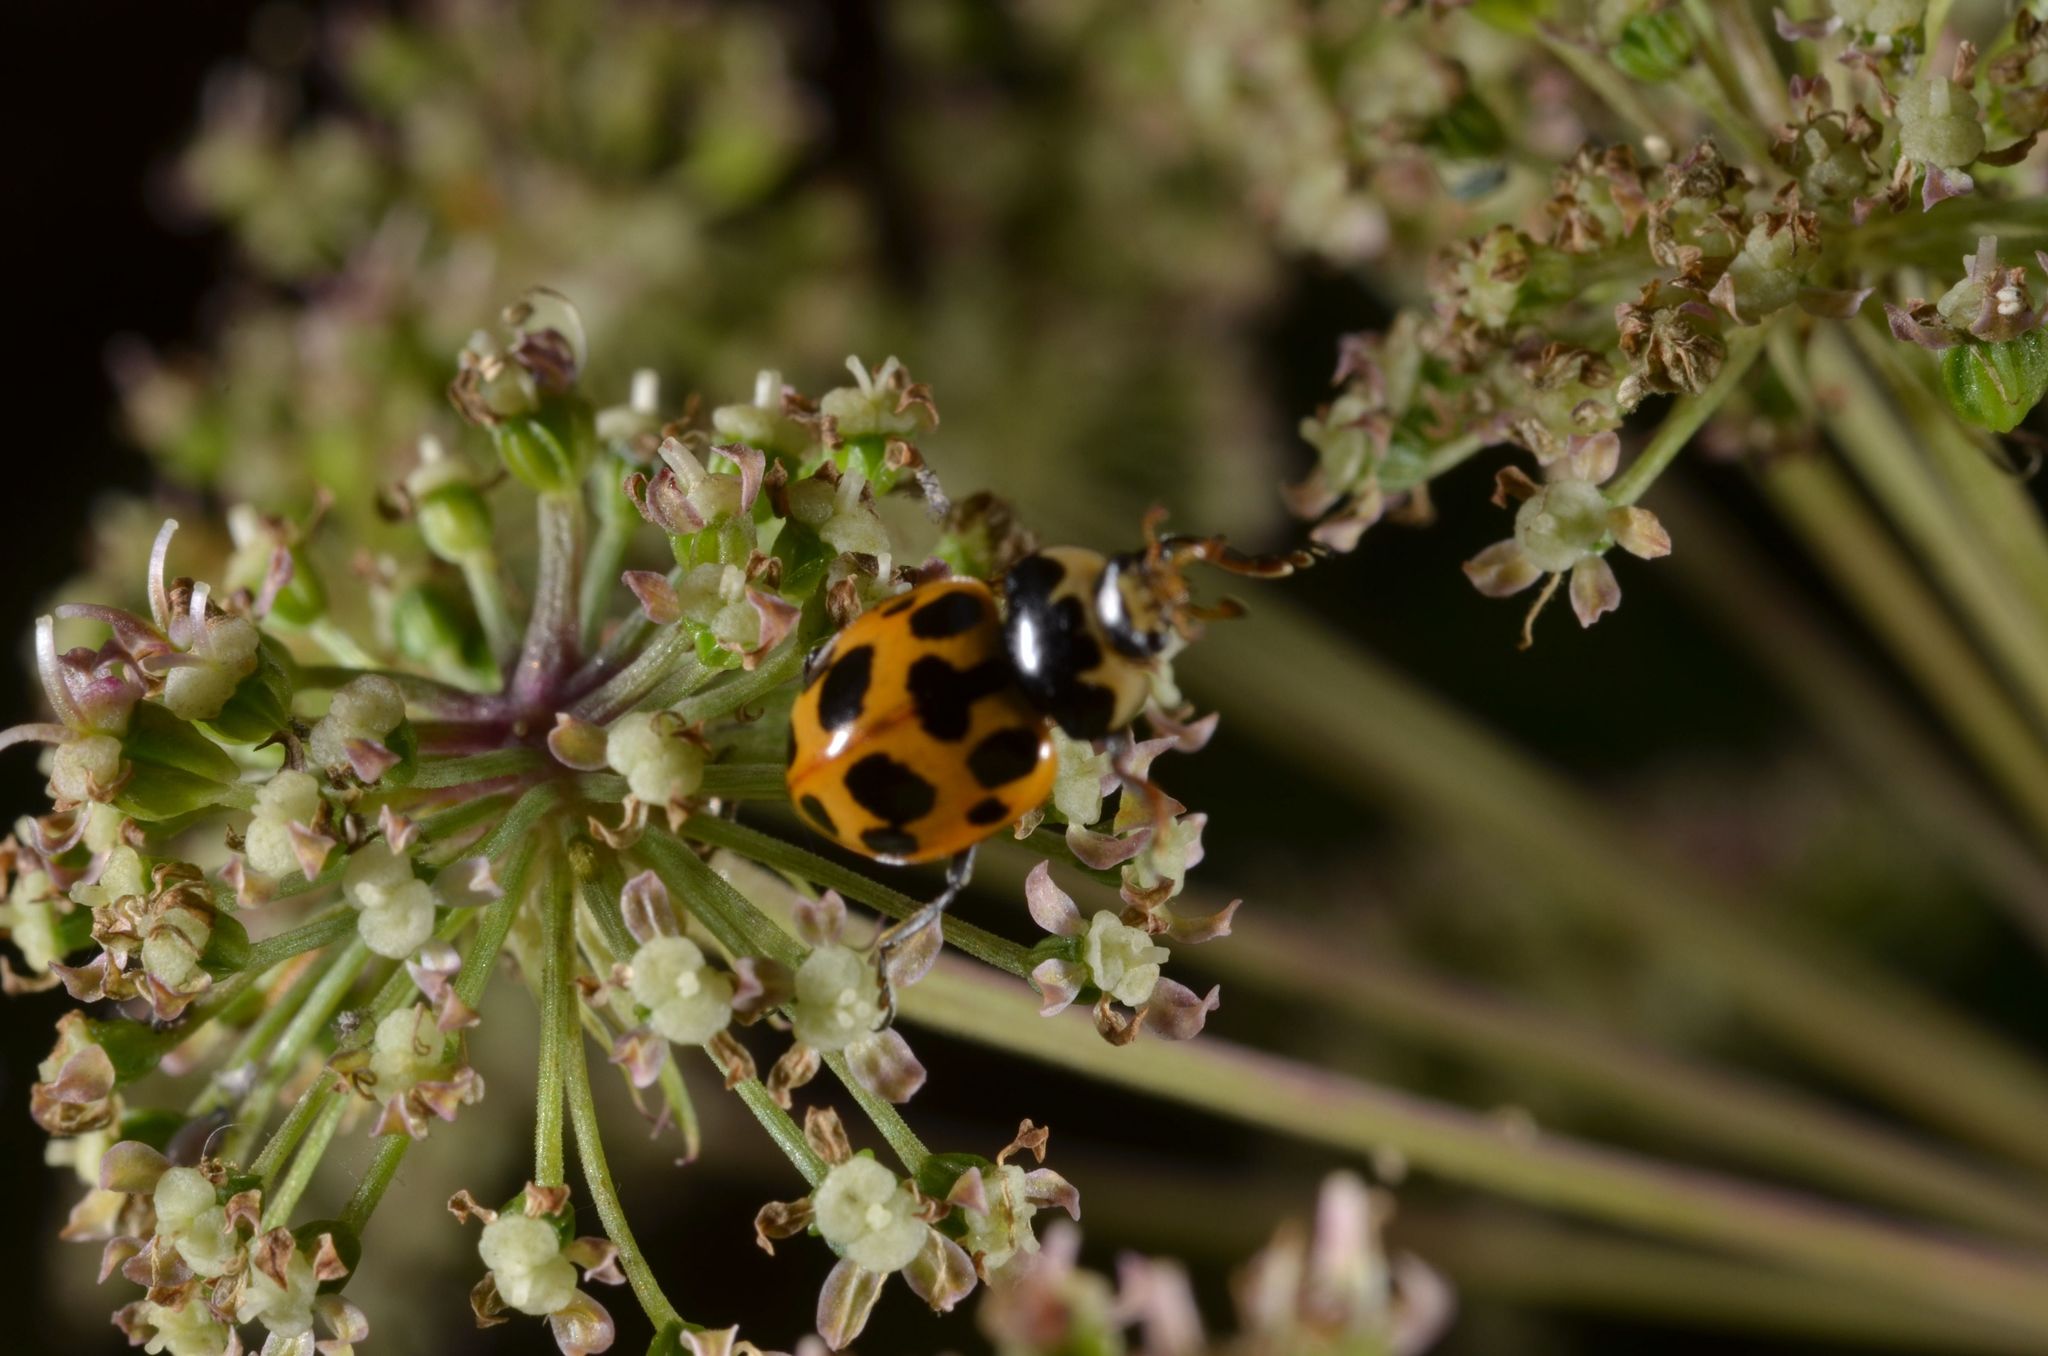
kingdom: Animalia
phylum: Arthropoda
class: Insecta
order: Coleoptera
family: Coccinellidae
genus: Ceratomegilla
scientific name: Ceratomegilla notata
